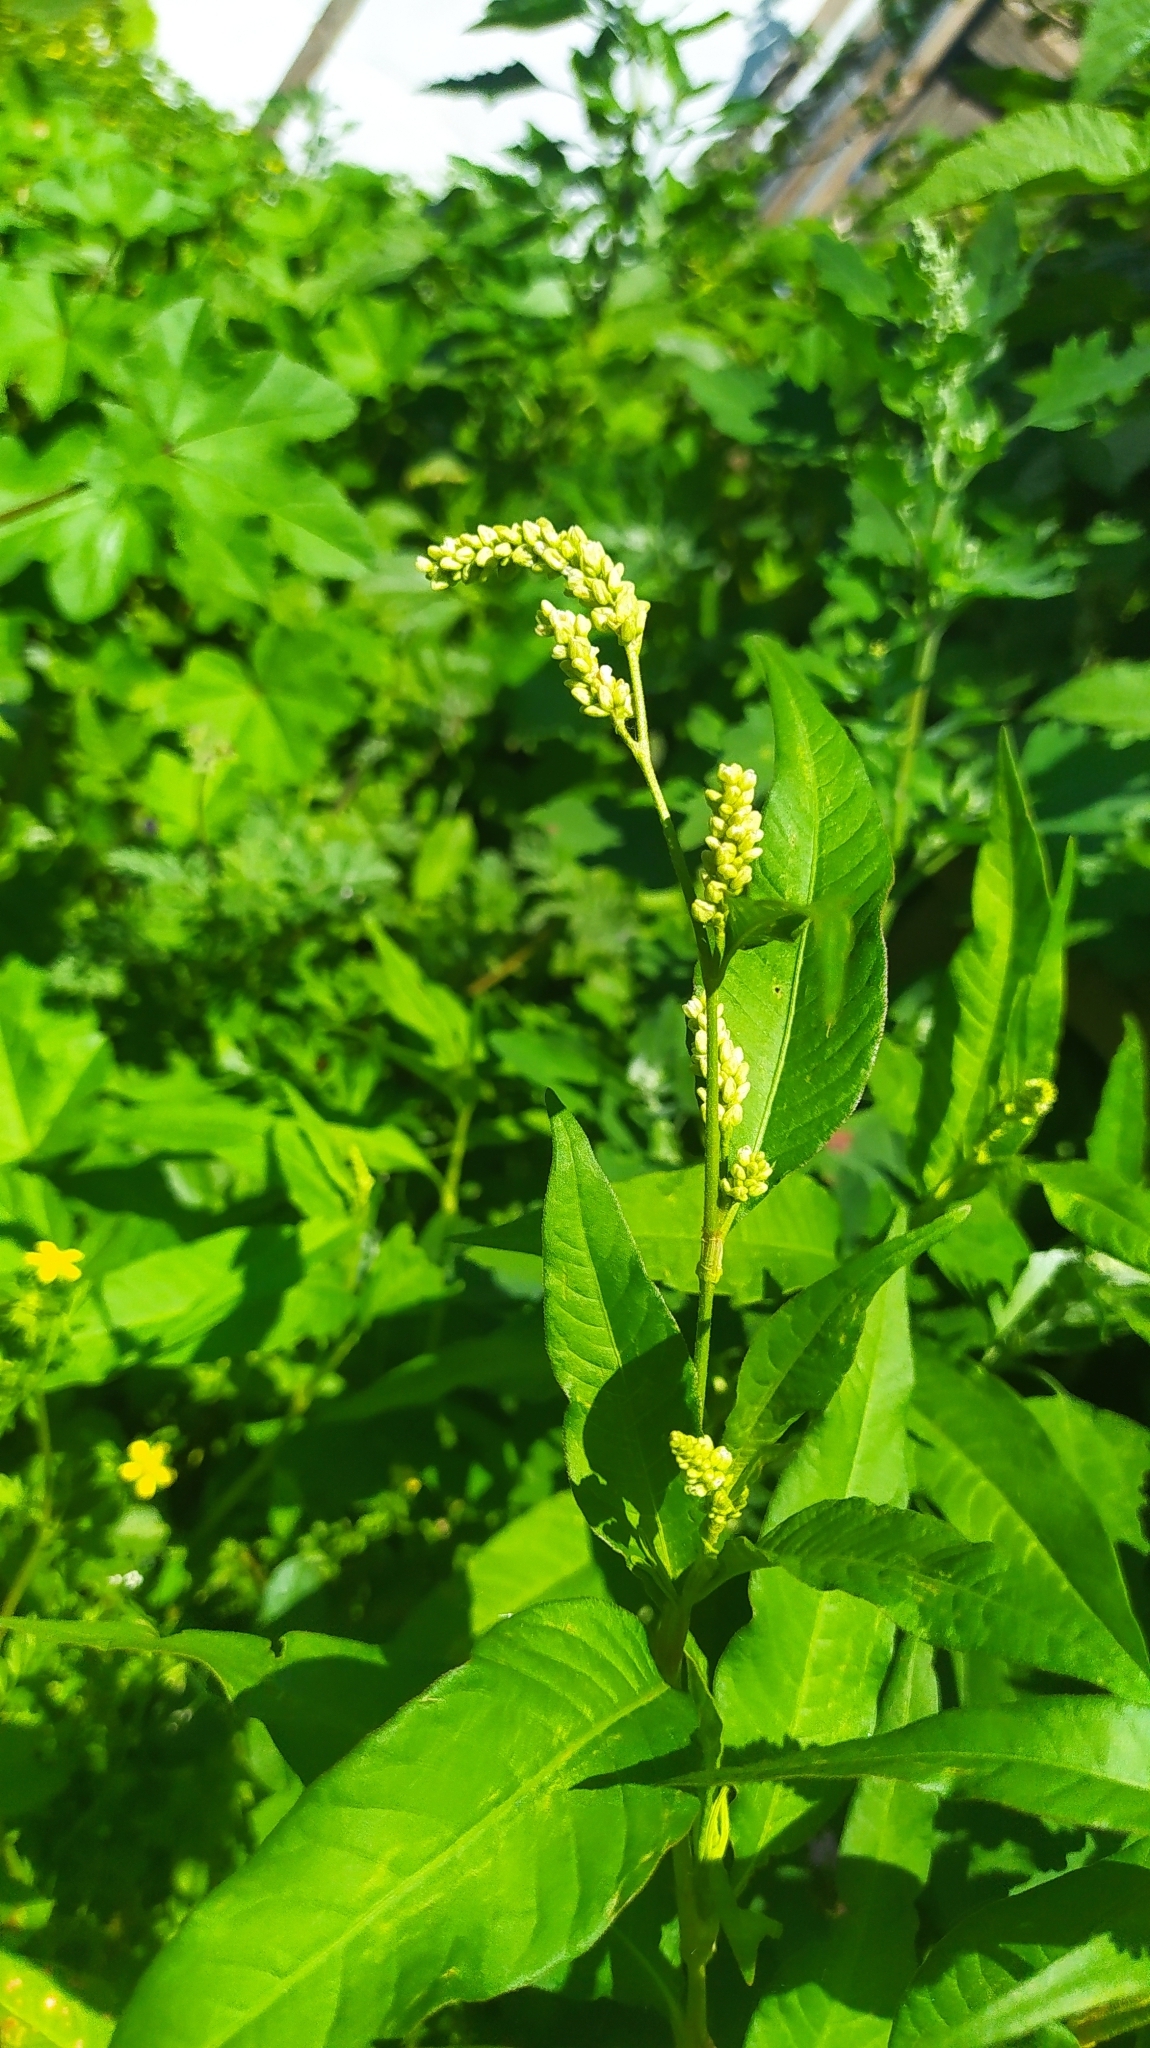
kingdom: Plantae
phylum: Tracheophyta
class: Magnoliopsida
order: Caryophyllales
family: Polygonaceae
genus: Persicaria
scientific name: Persicaria lapathifolia
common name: Curlytop knotweed
